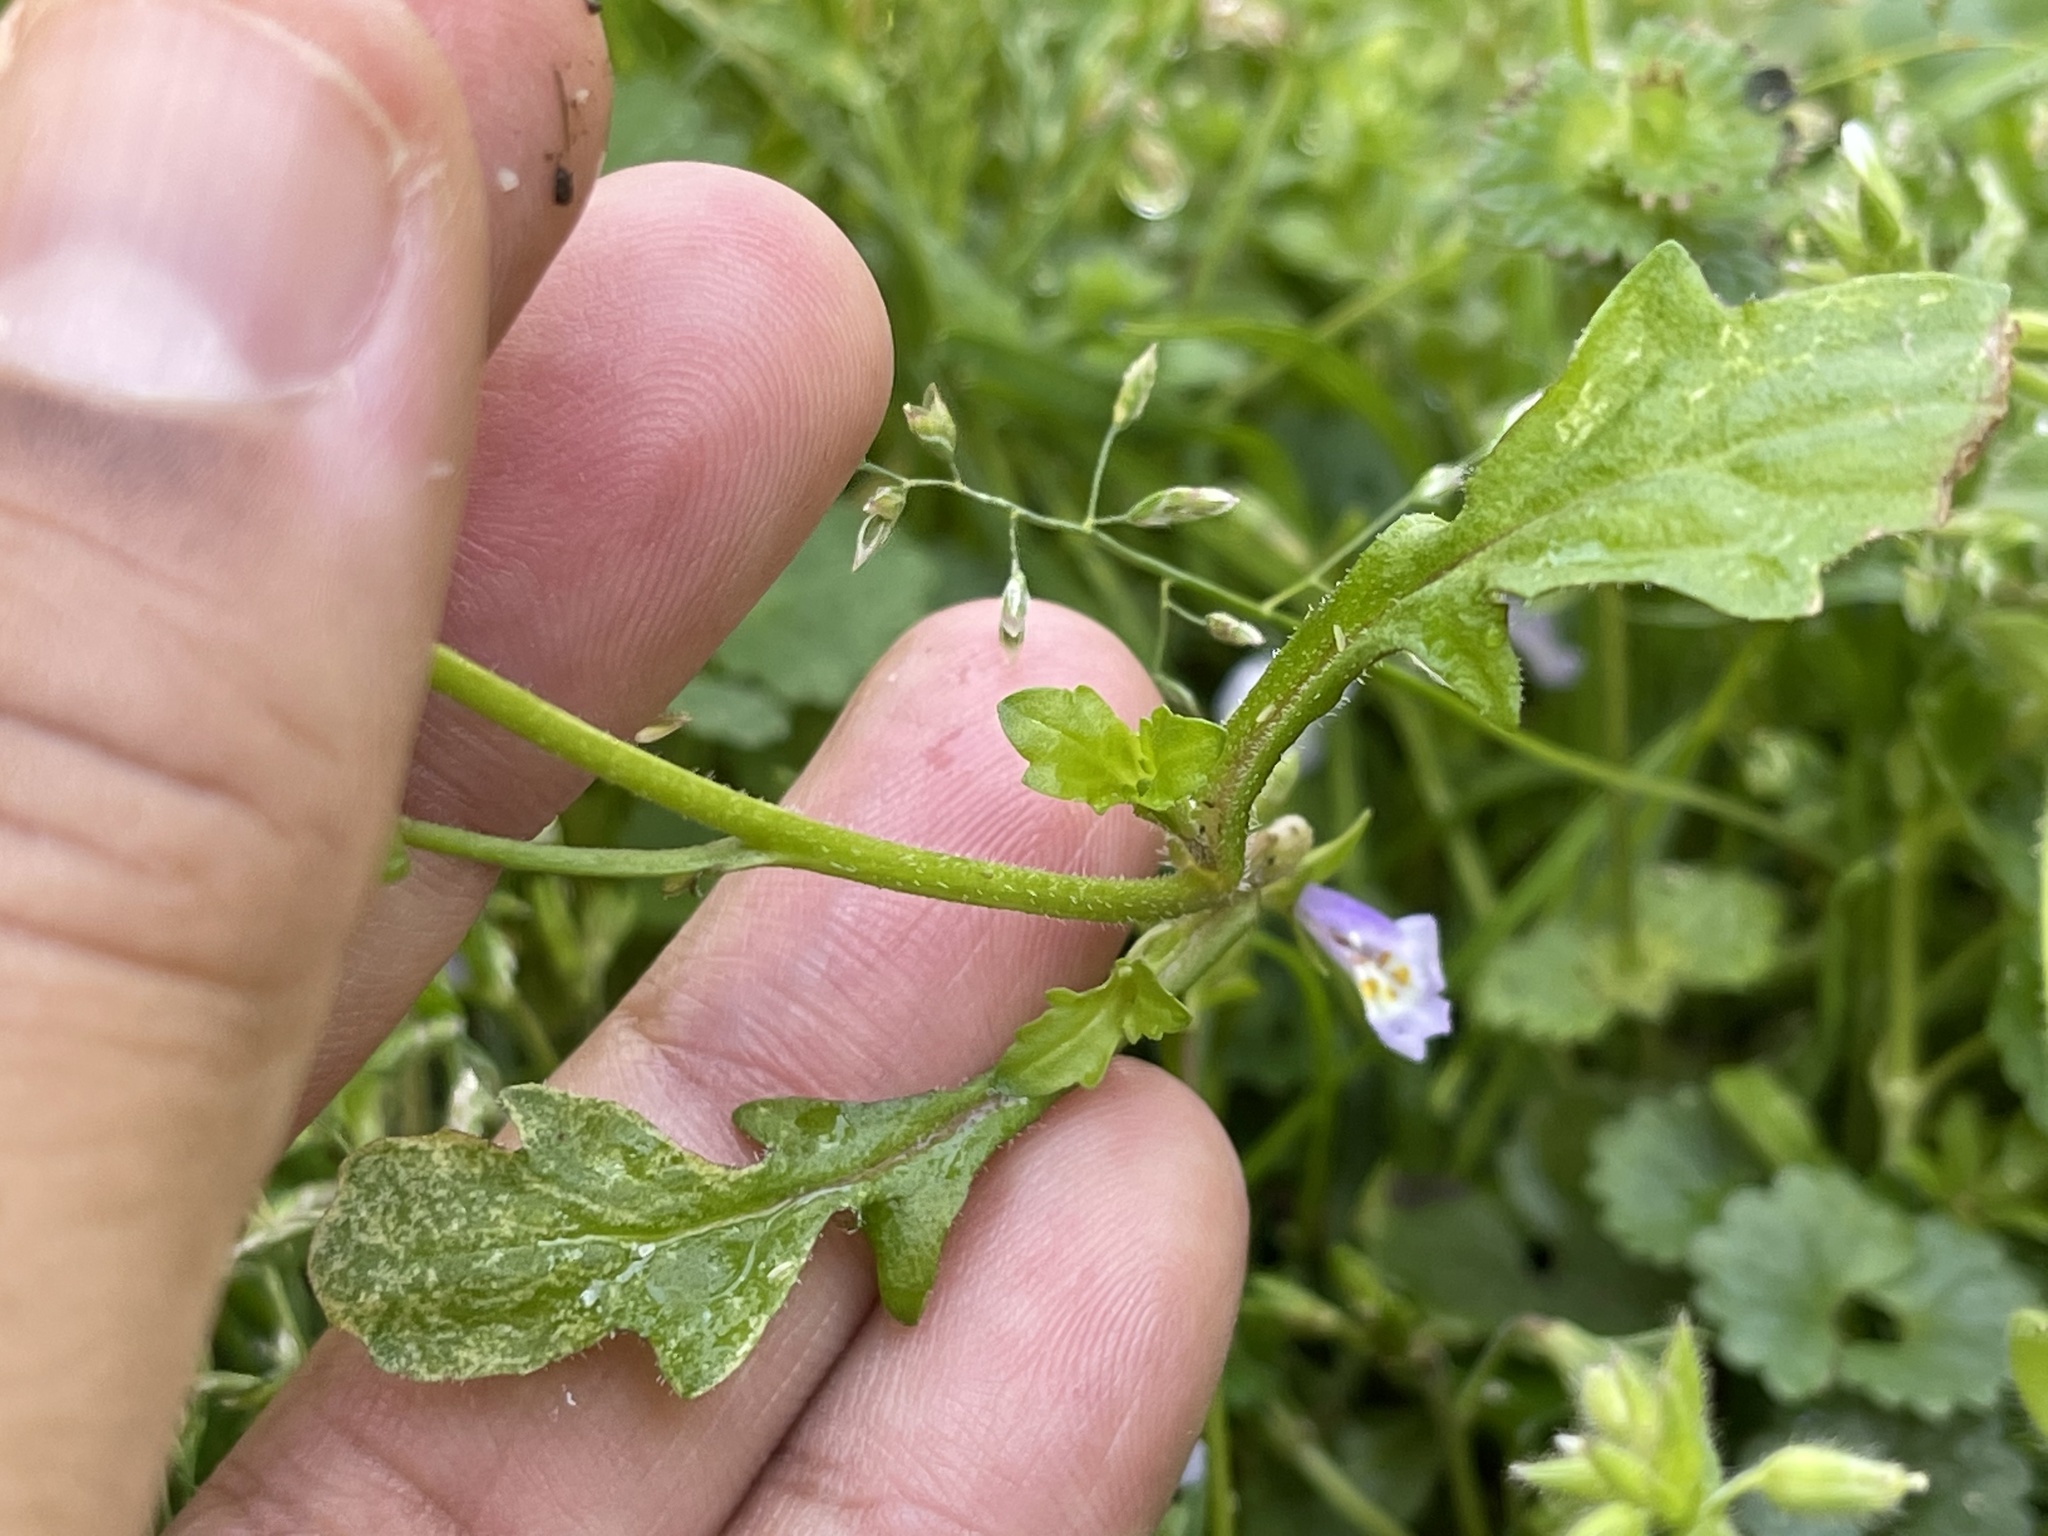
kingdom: Plantae
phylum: Tracheophyta
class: Magnoliopsida
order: Lamiales
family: Mazaceae
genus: Mazus
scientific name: Mazus pumilus
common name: Japanese mazus
